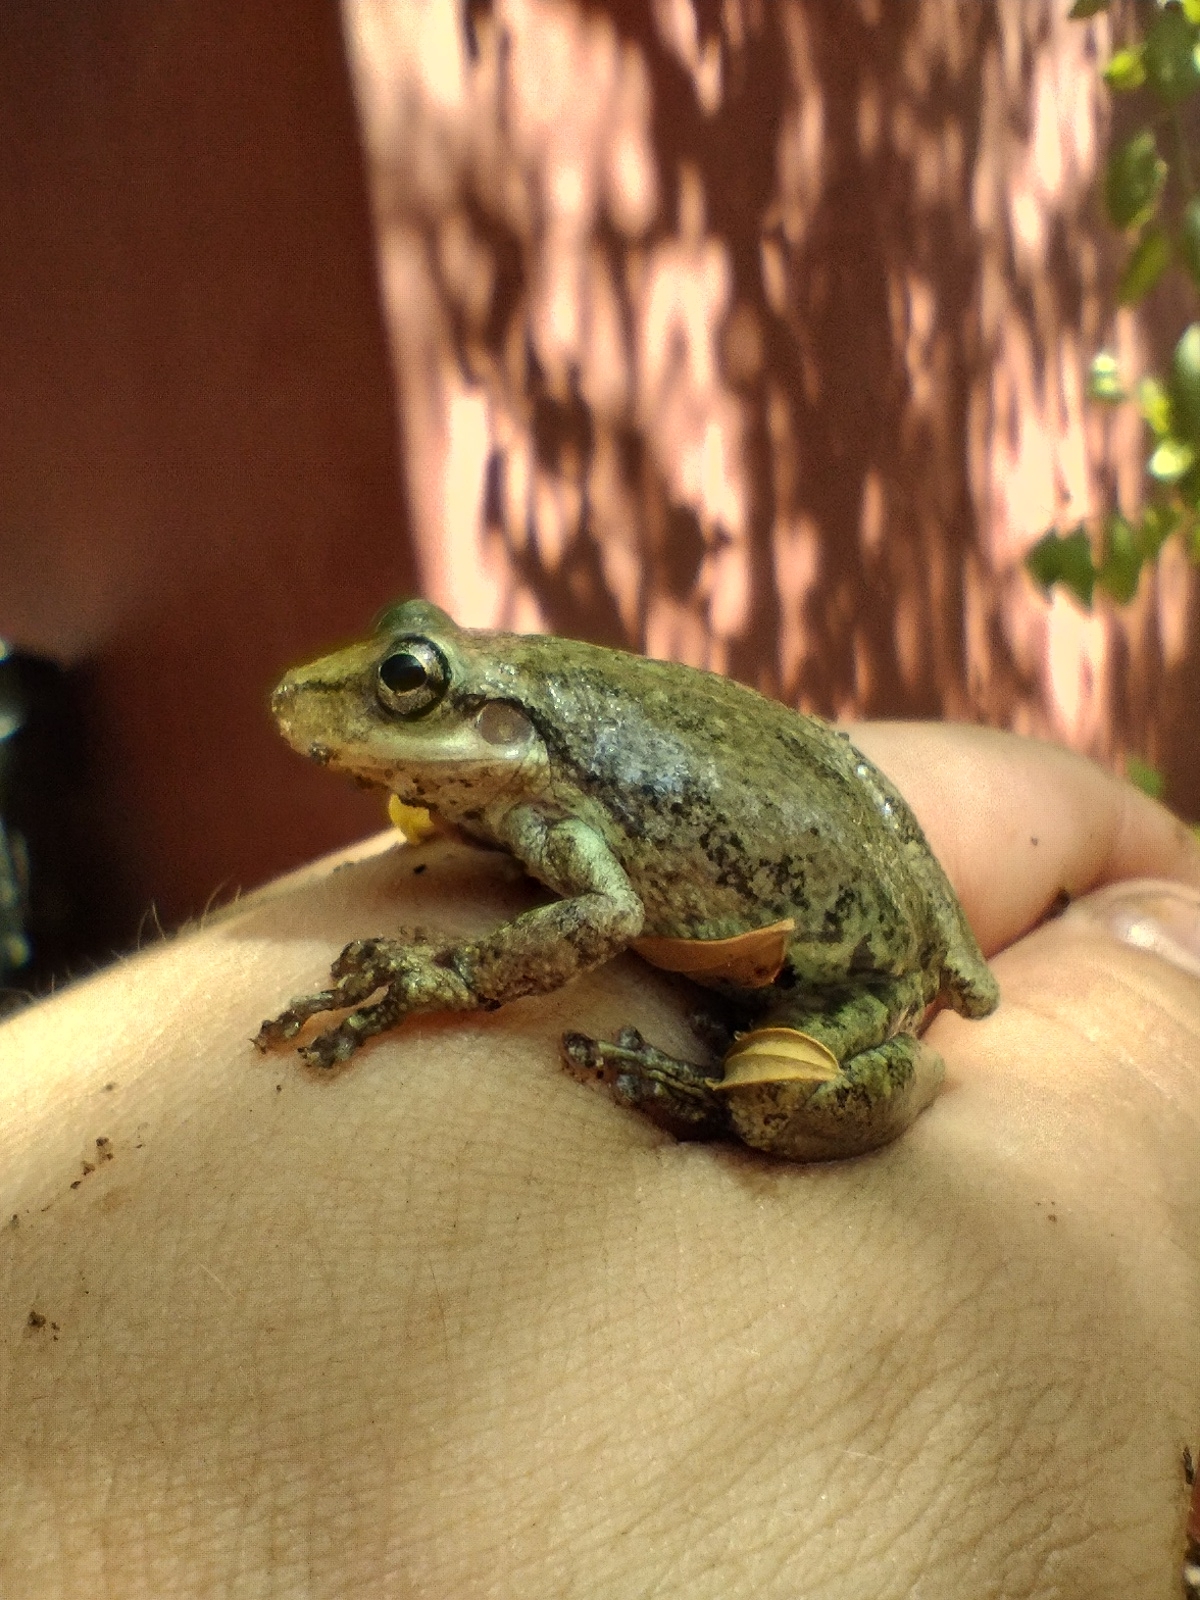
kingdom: Animalia
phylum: Chordata
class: Amphibia
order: Anura
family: Hylidae
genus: Scinax
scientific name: Scinax nasicus
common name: Lesser snouted treefrog
